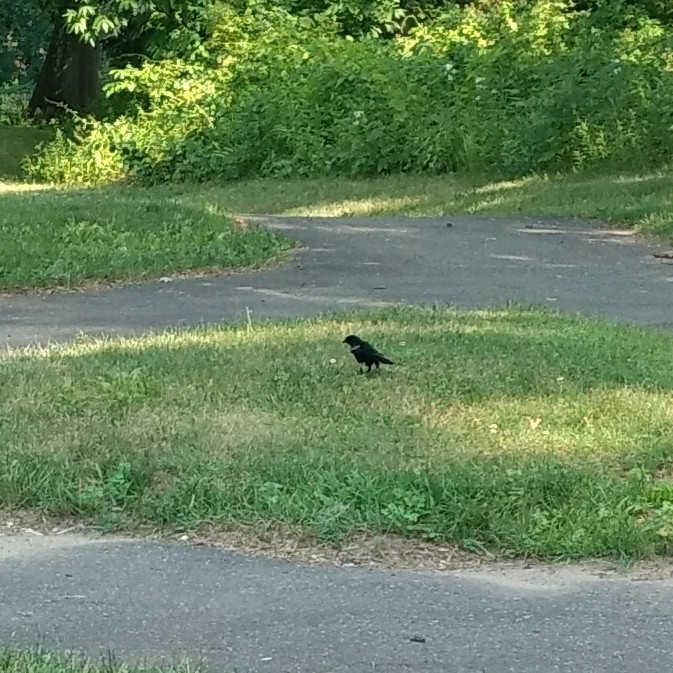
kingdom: Animalia
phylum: Chordata
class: Aves
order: Passeriformes
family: Icteridae
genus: Agelaius
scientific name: Agelaius phoeniceus
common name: Red-winged blackbird
